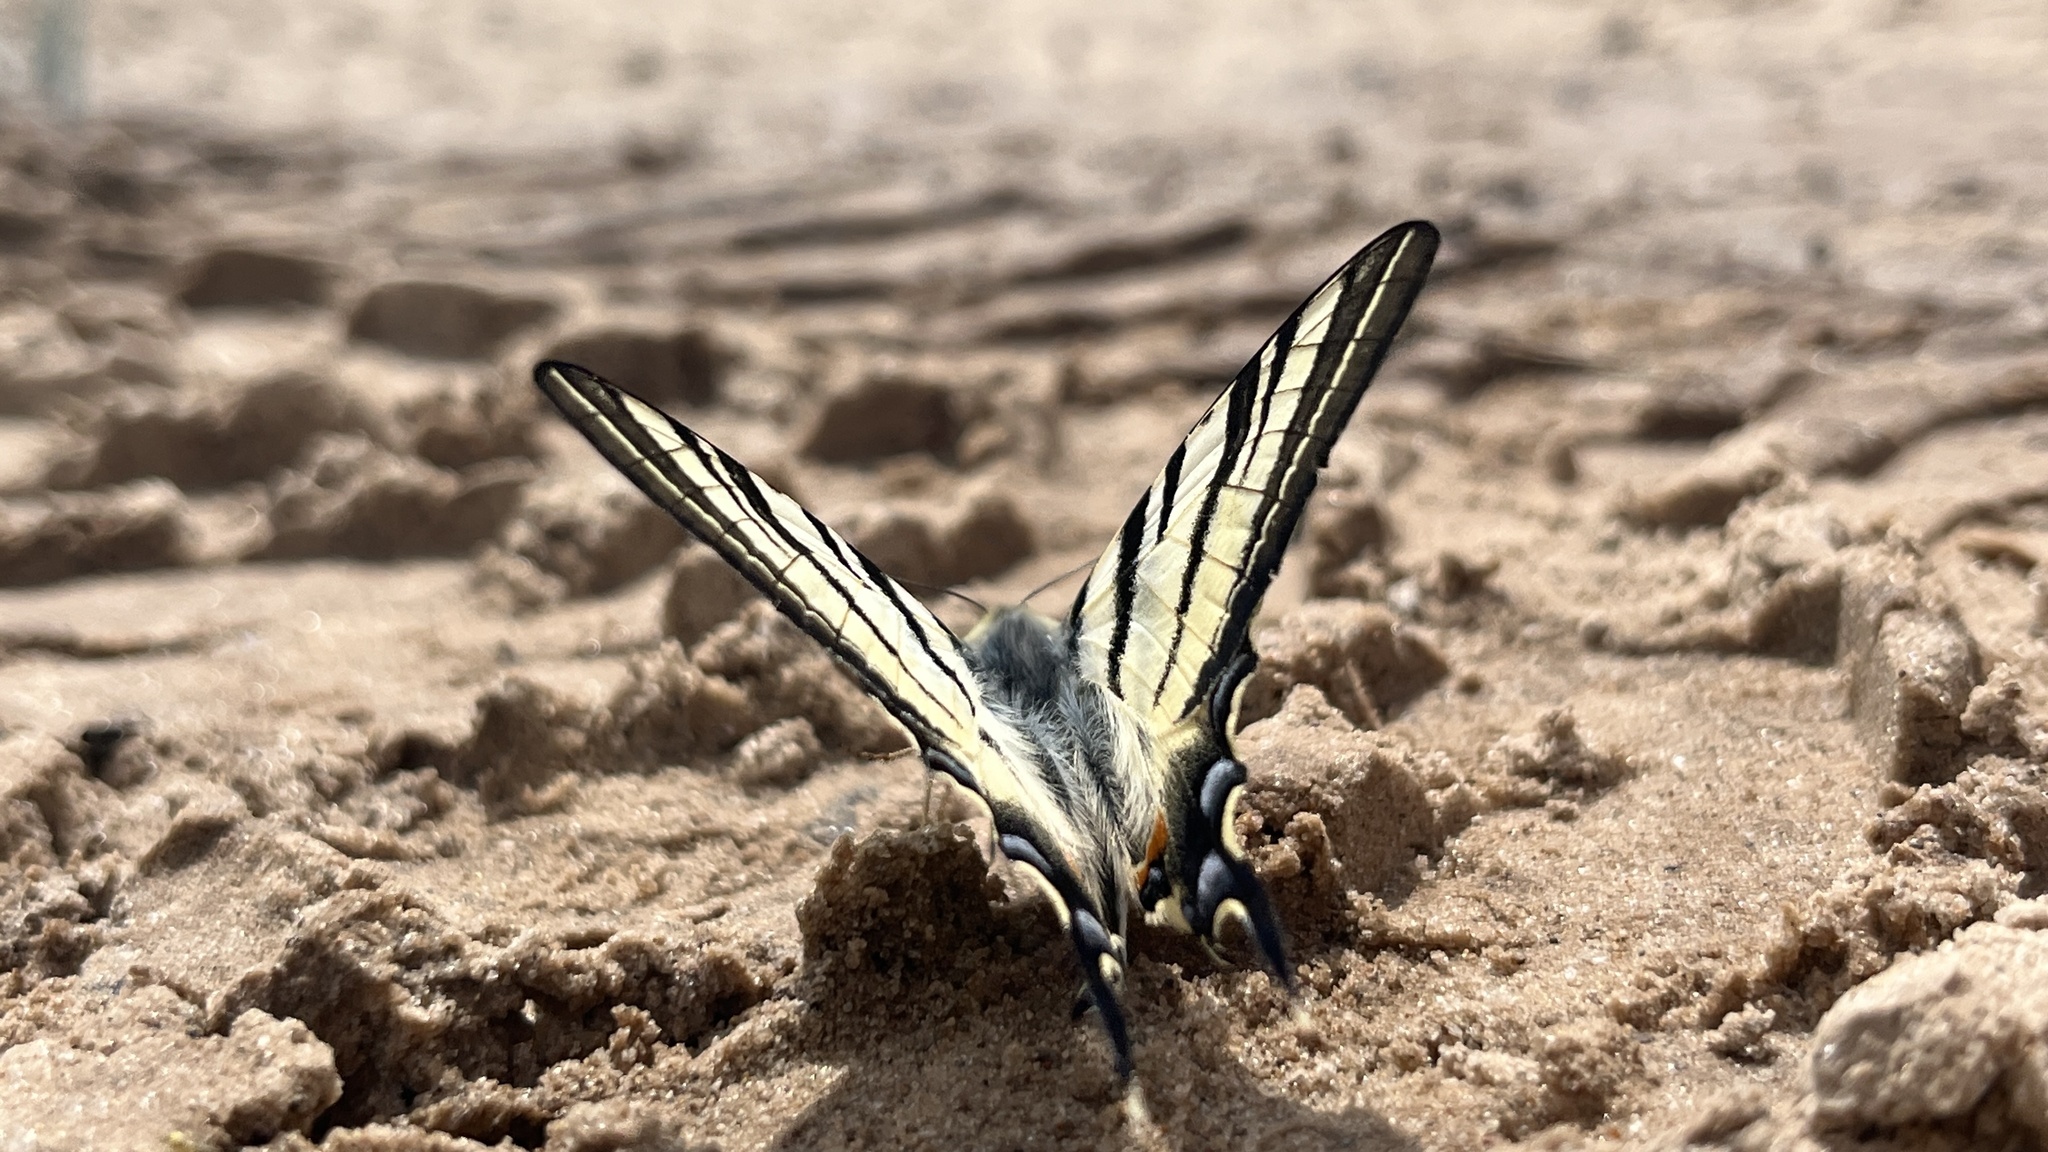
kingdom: Animalia
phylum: Arthropoda
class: Insecta
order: Lepidoptera
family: Papilionidae
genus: Iphiclides
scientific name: Iphiclides podalirius
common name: Scarce swallowtail
